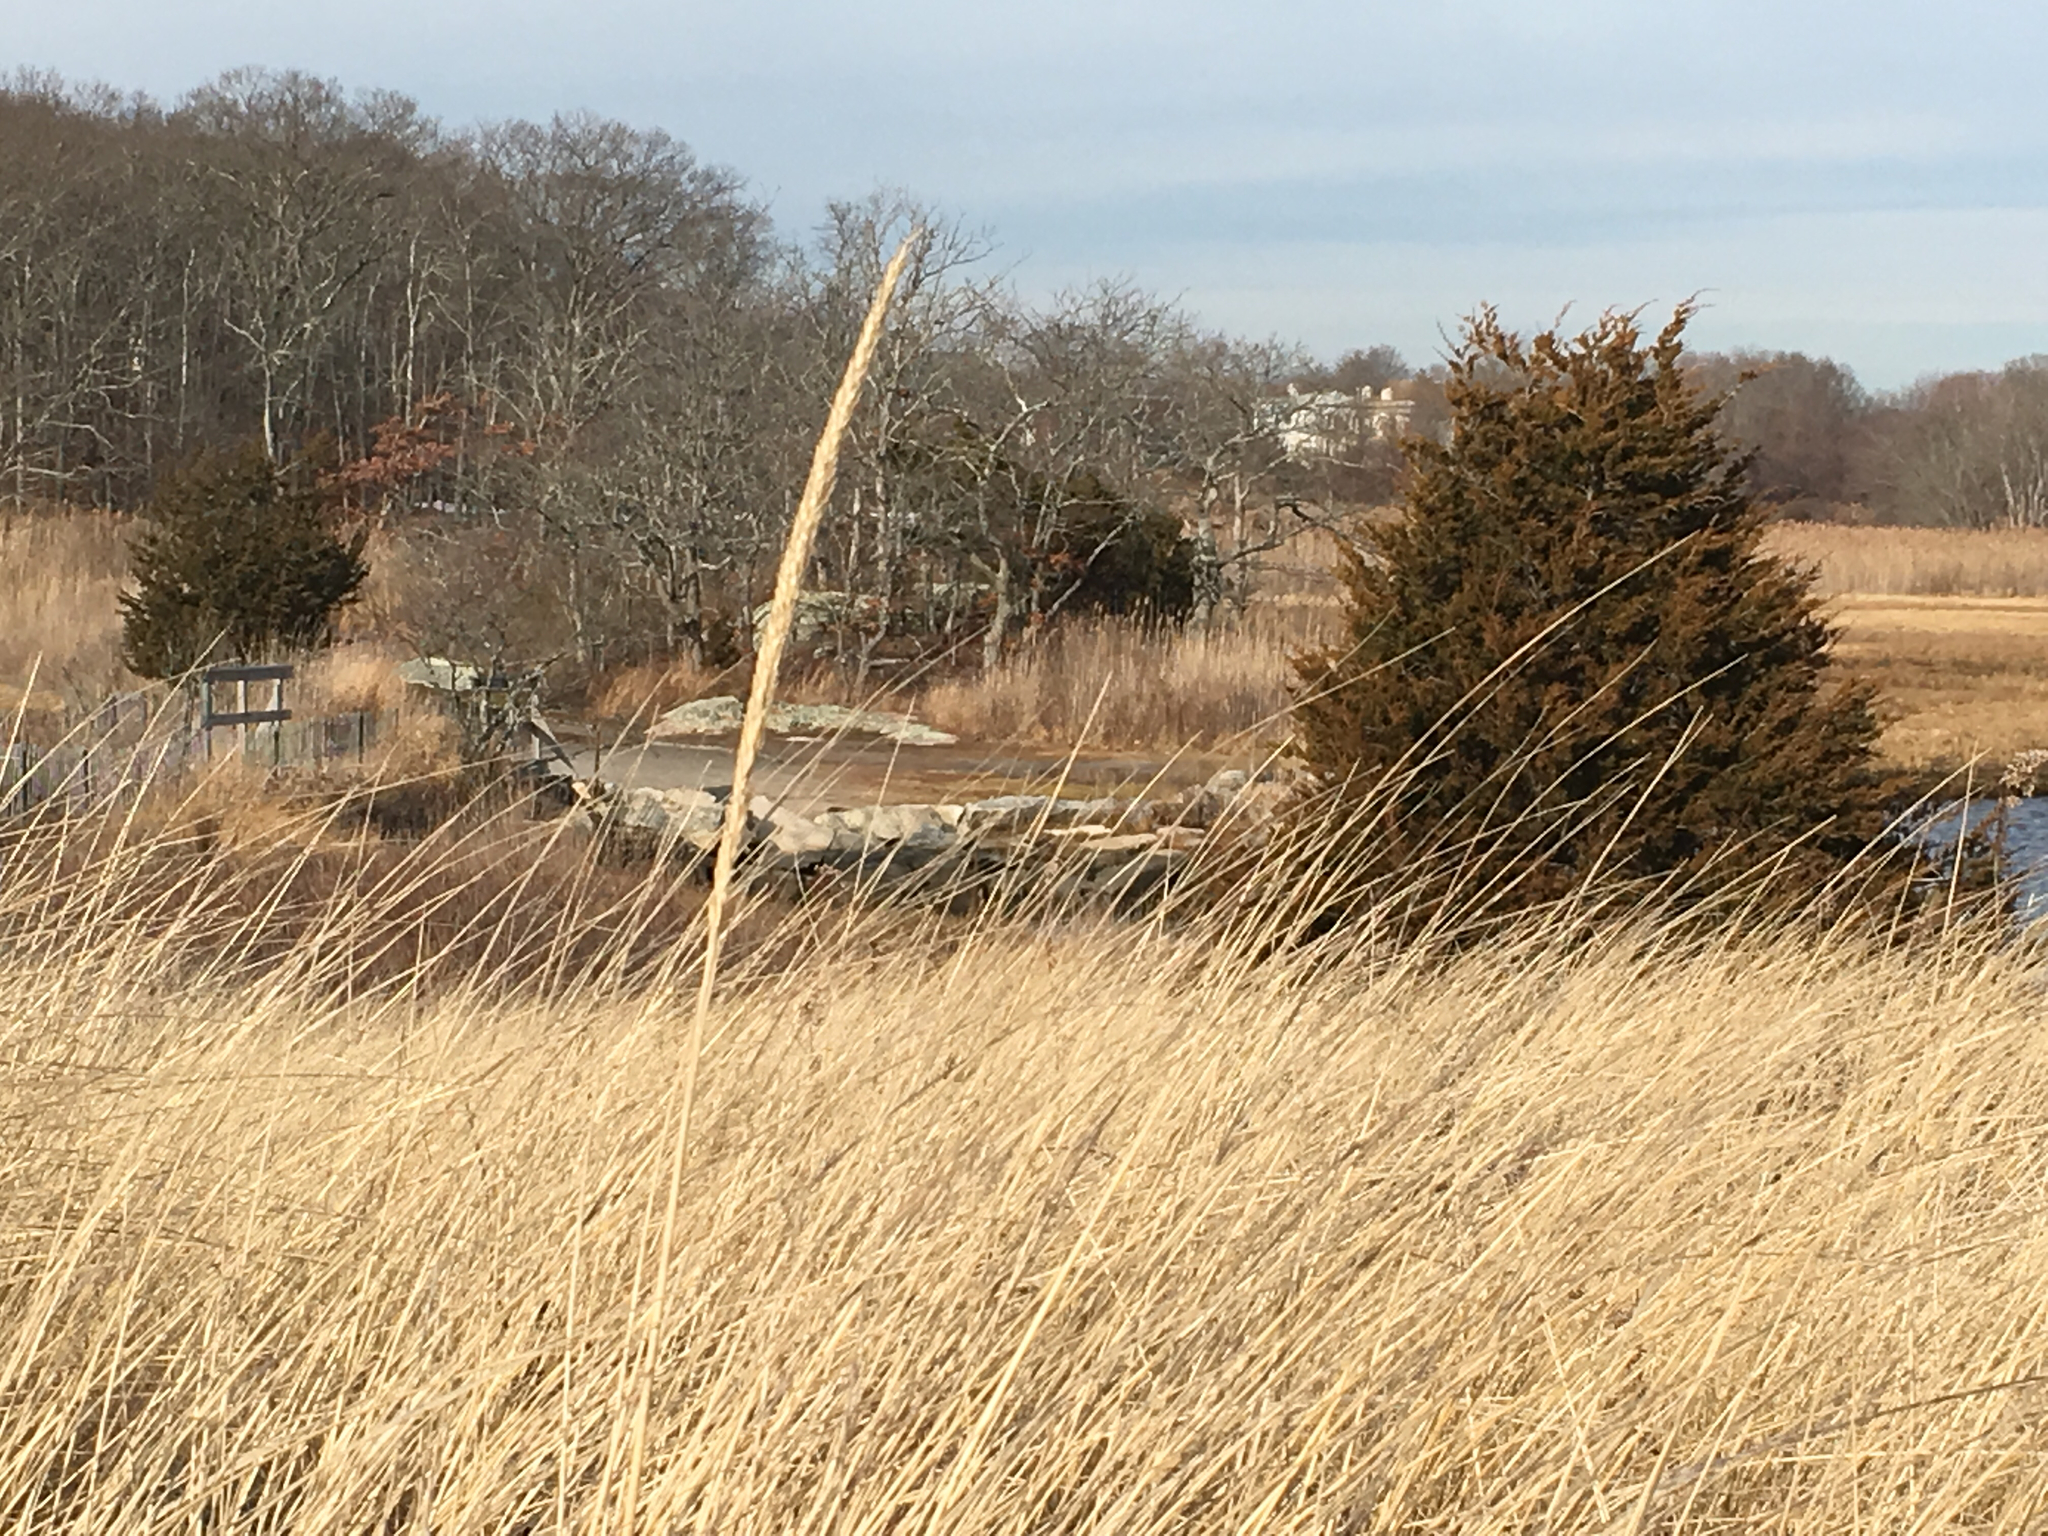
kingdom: Plantae
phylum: Tracheophyta
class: Liliopsida
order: Poales
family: Poaceae
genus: Calamagrostis
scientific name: Calamagrostis breviligulata
